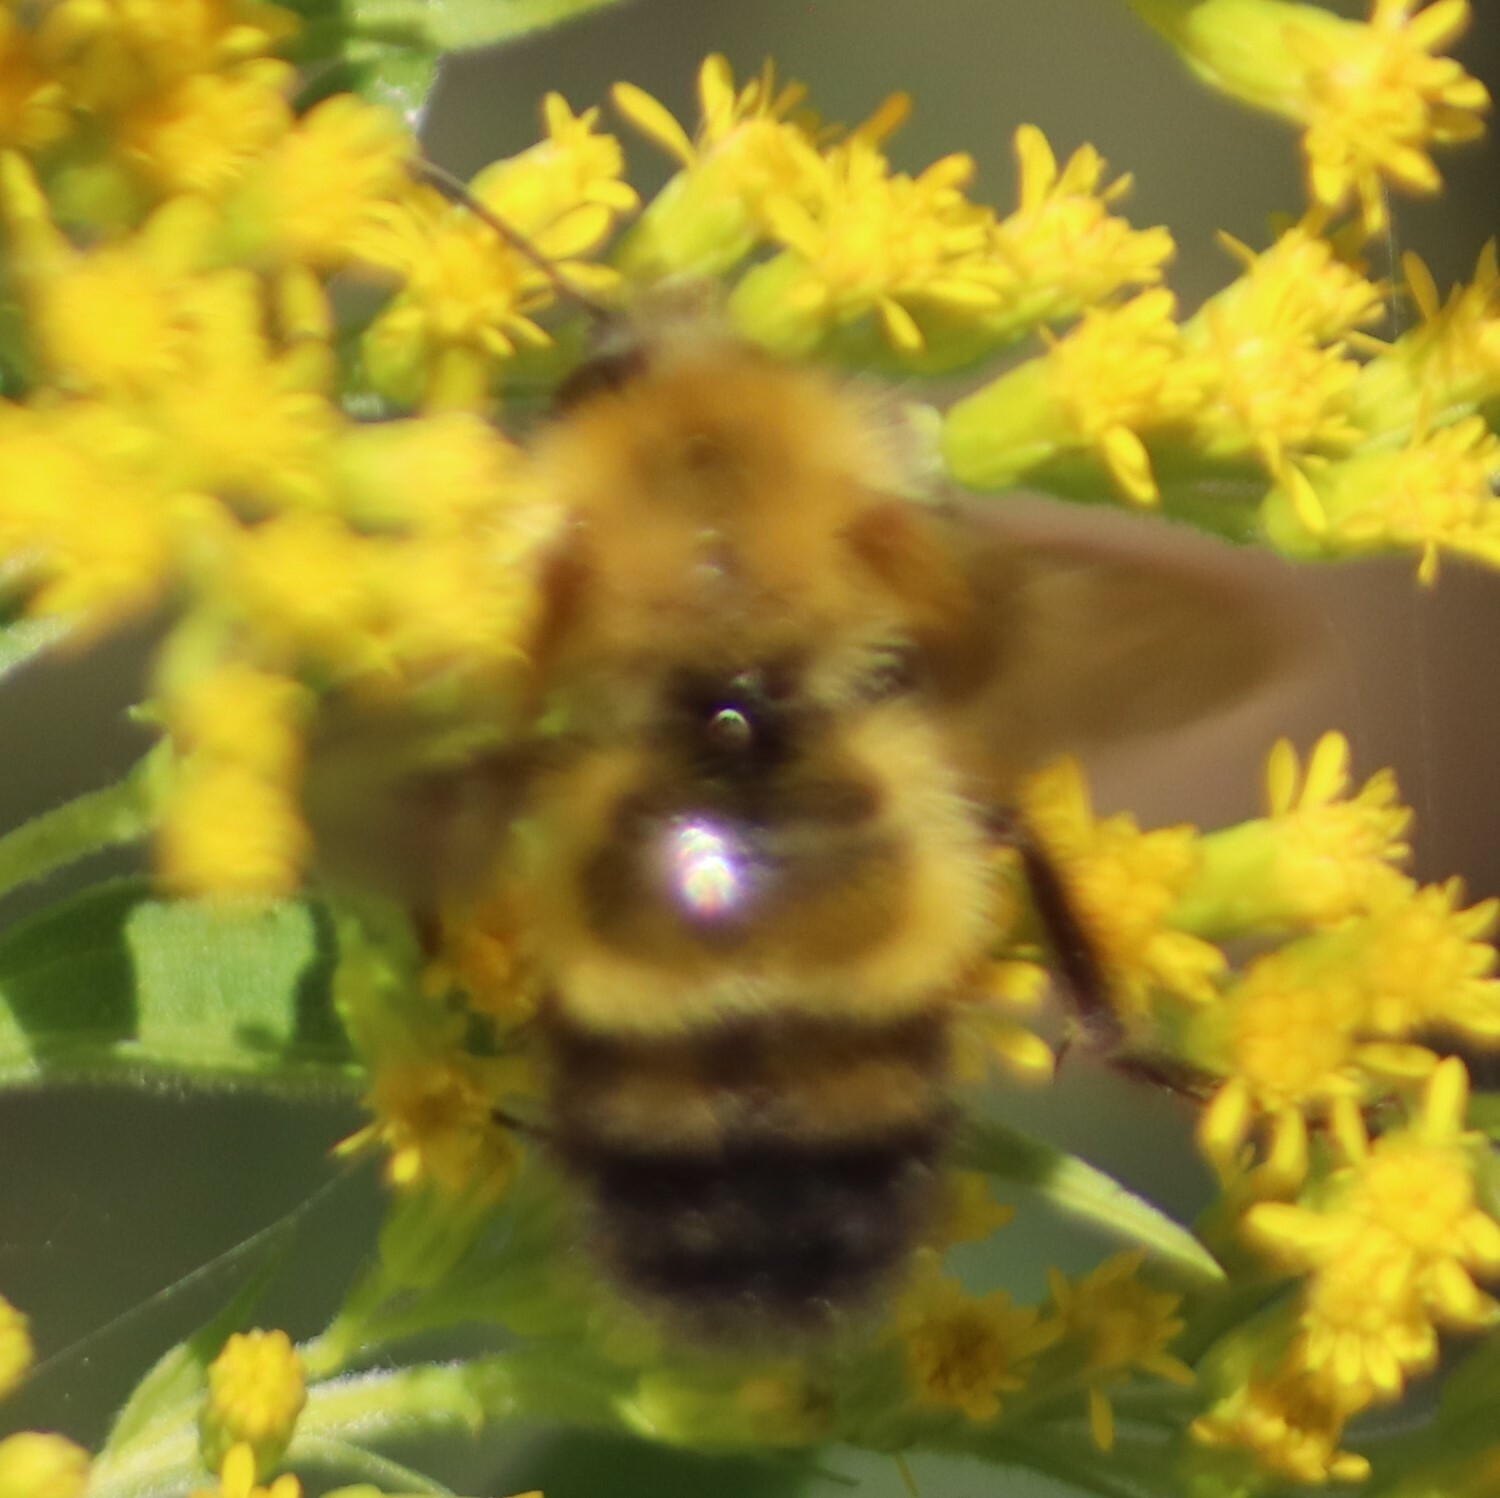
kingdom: Animalia
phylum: Arthropoda
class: Insecta
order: Hymenoptera
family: Apidae
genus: Bombus
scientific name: Bombus perplexus
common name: Confusing bumble bee
